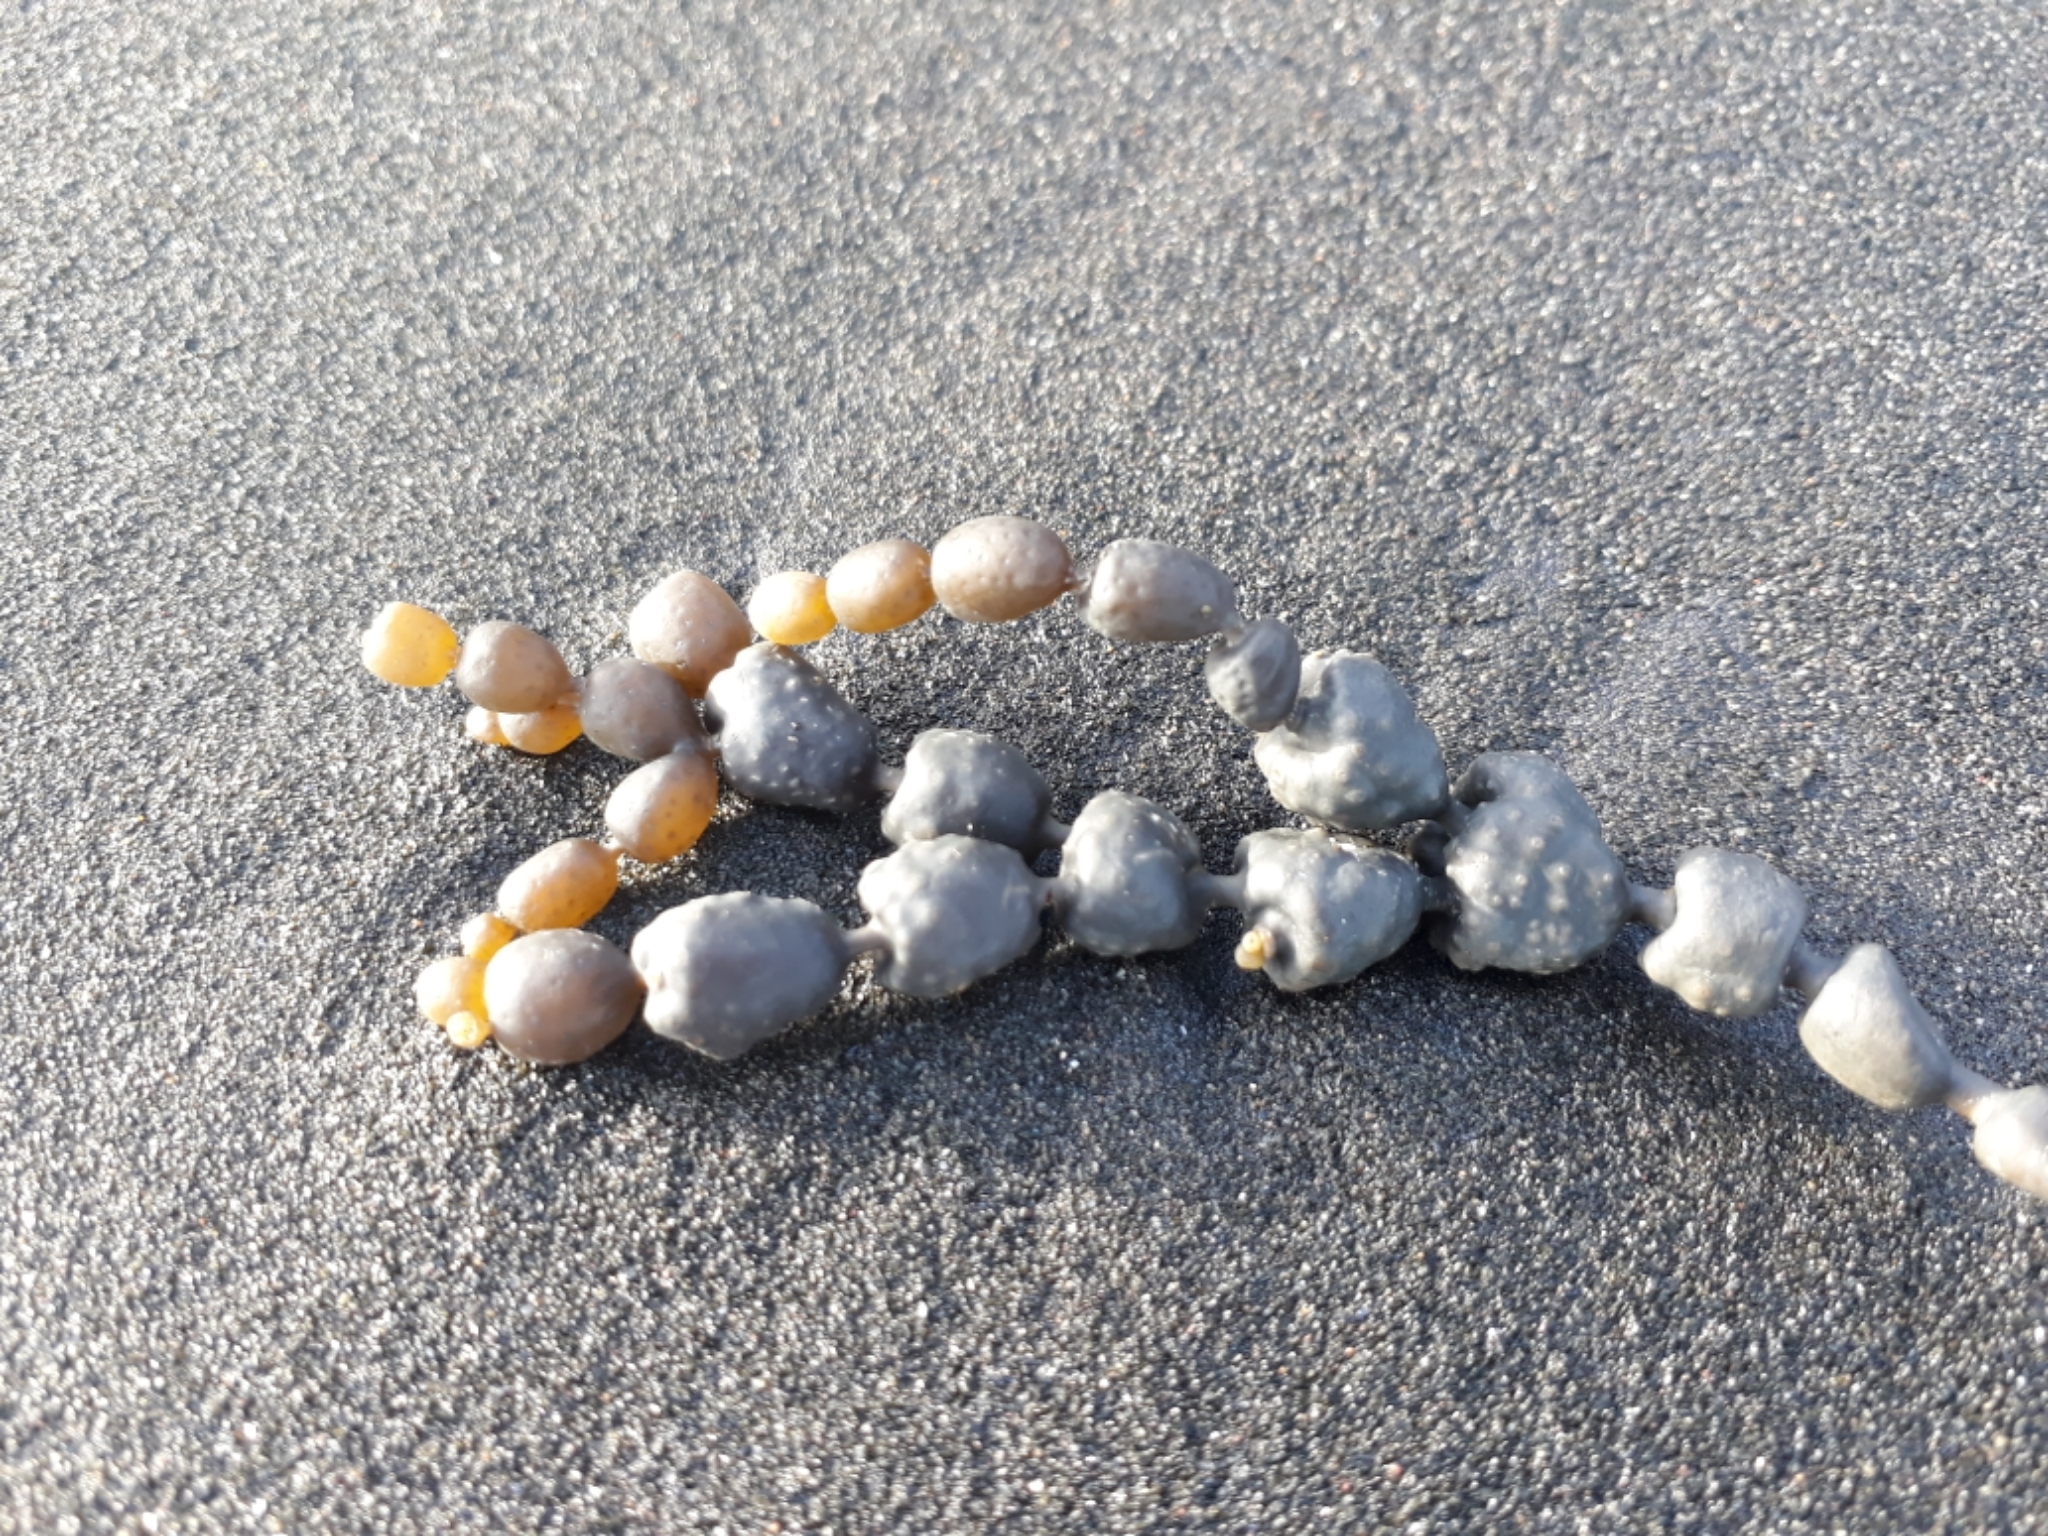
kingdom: Chromista
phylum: Ochrophyta
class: Phaeophyceae
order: Fucales
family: Hormosiraceae
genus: Hormosira
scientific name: Hormosira banksii
